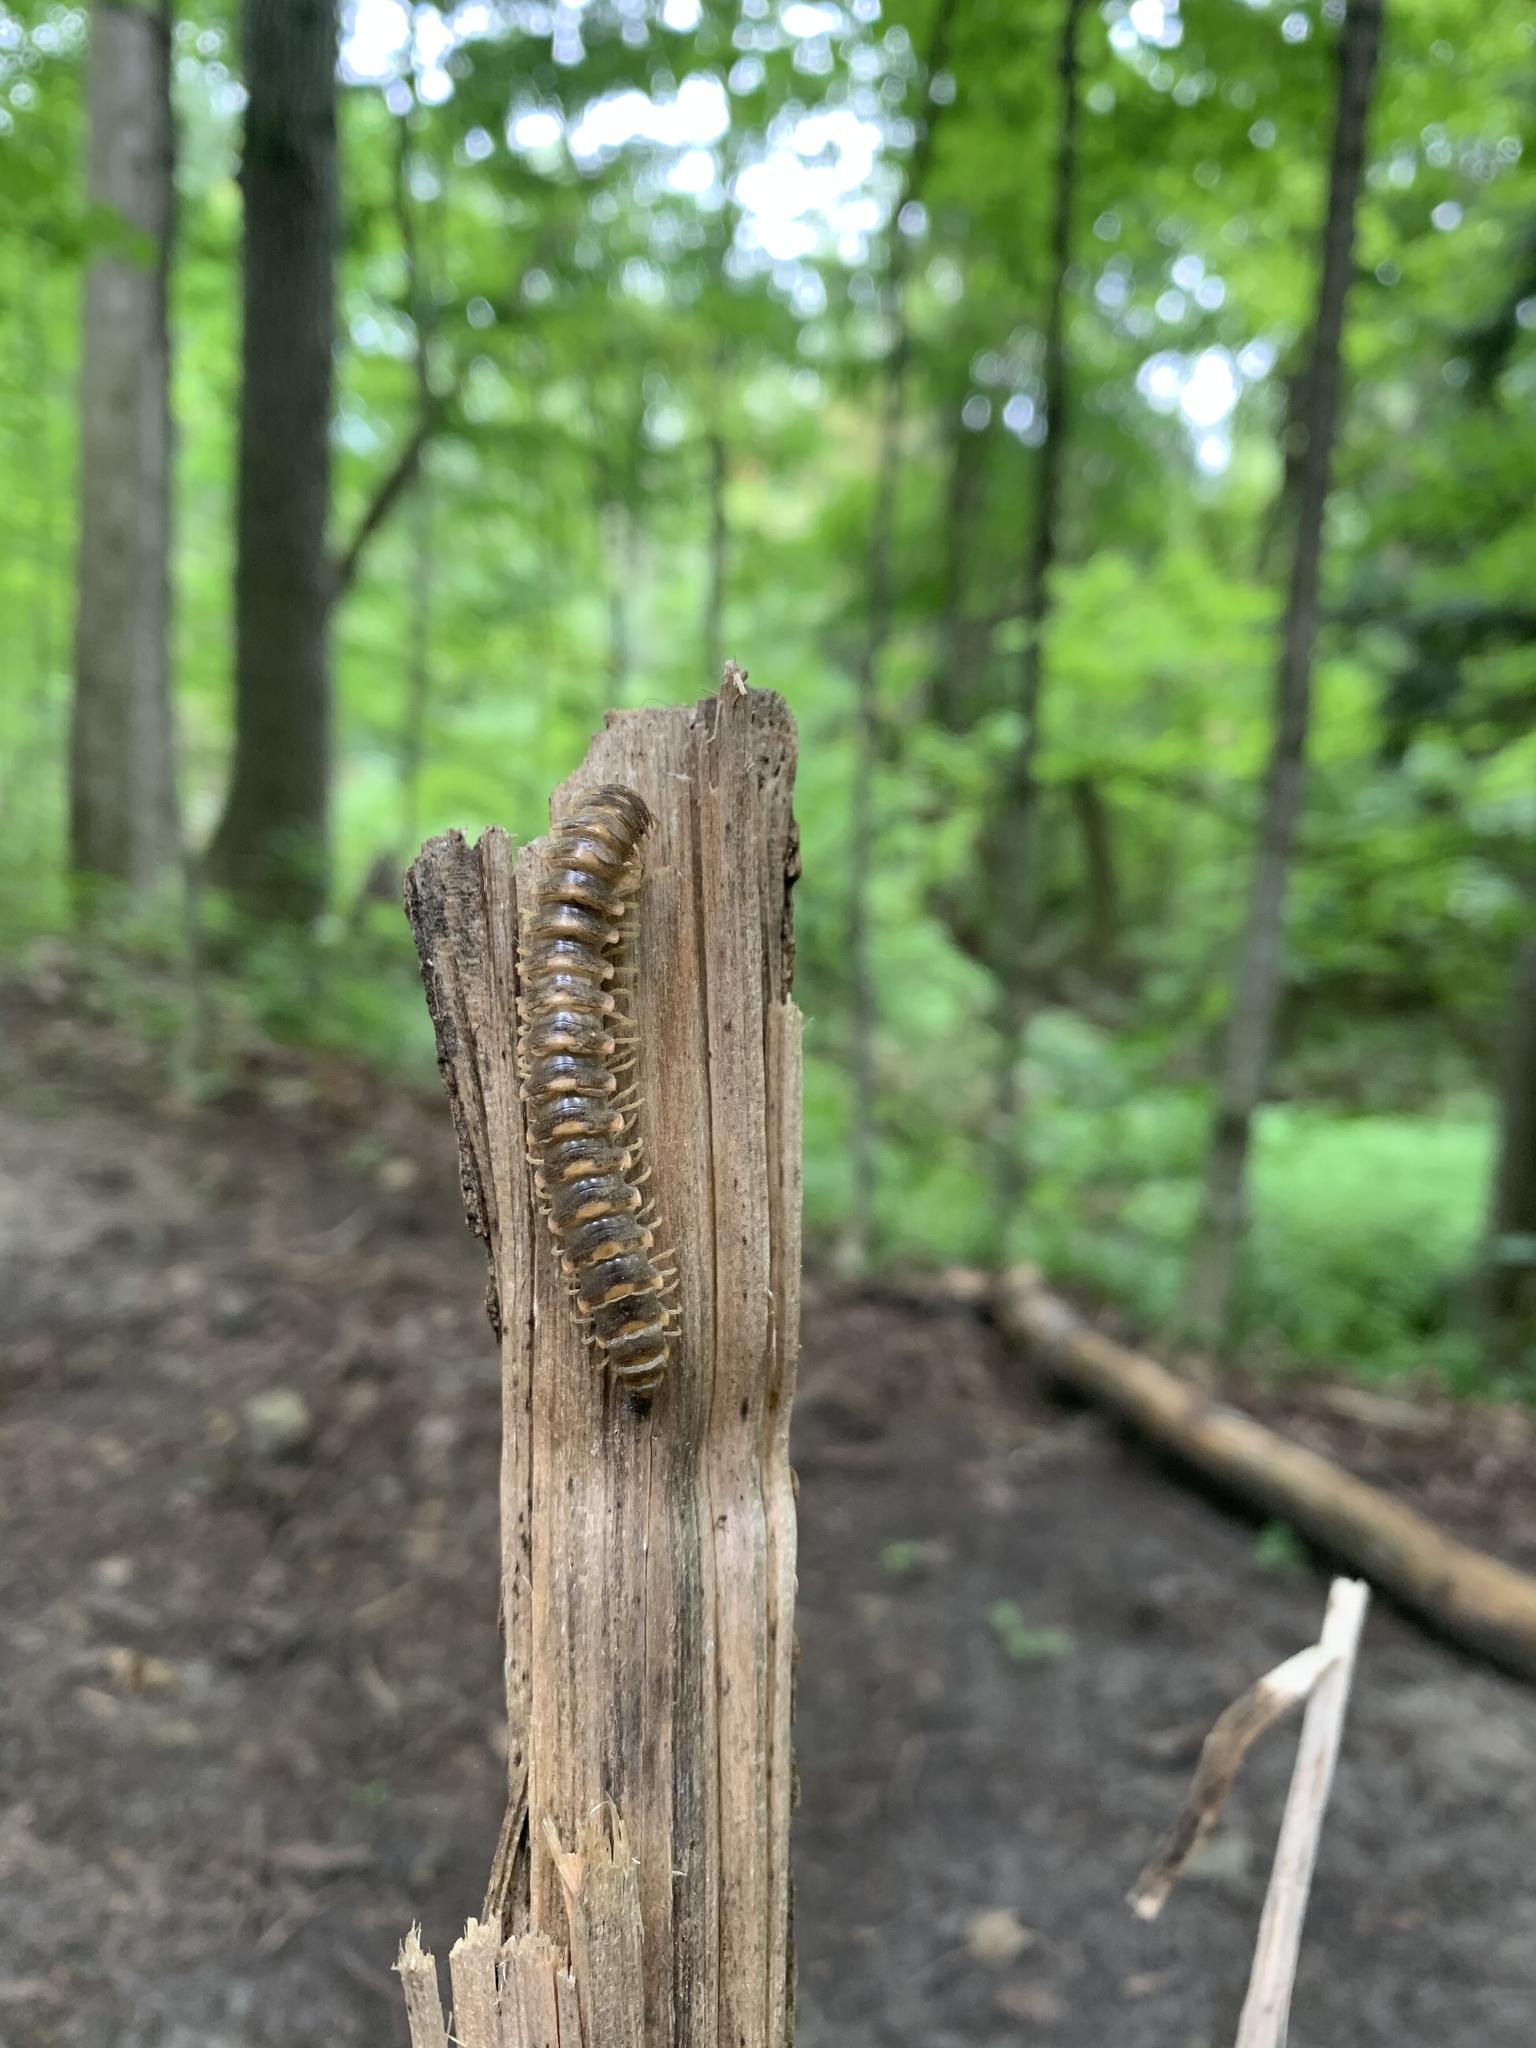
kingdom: Animalia
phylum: Arthropoda
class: Diplopoda
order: Polydesmida
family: Xystodesmidae
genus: Rudiloria
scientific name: Rudiloria trimaculata
